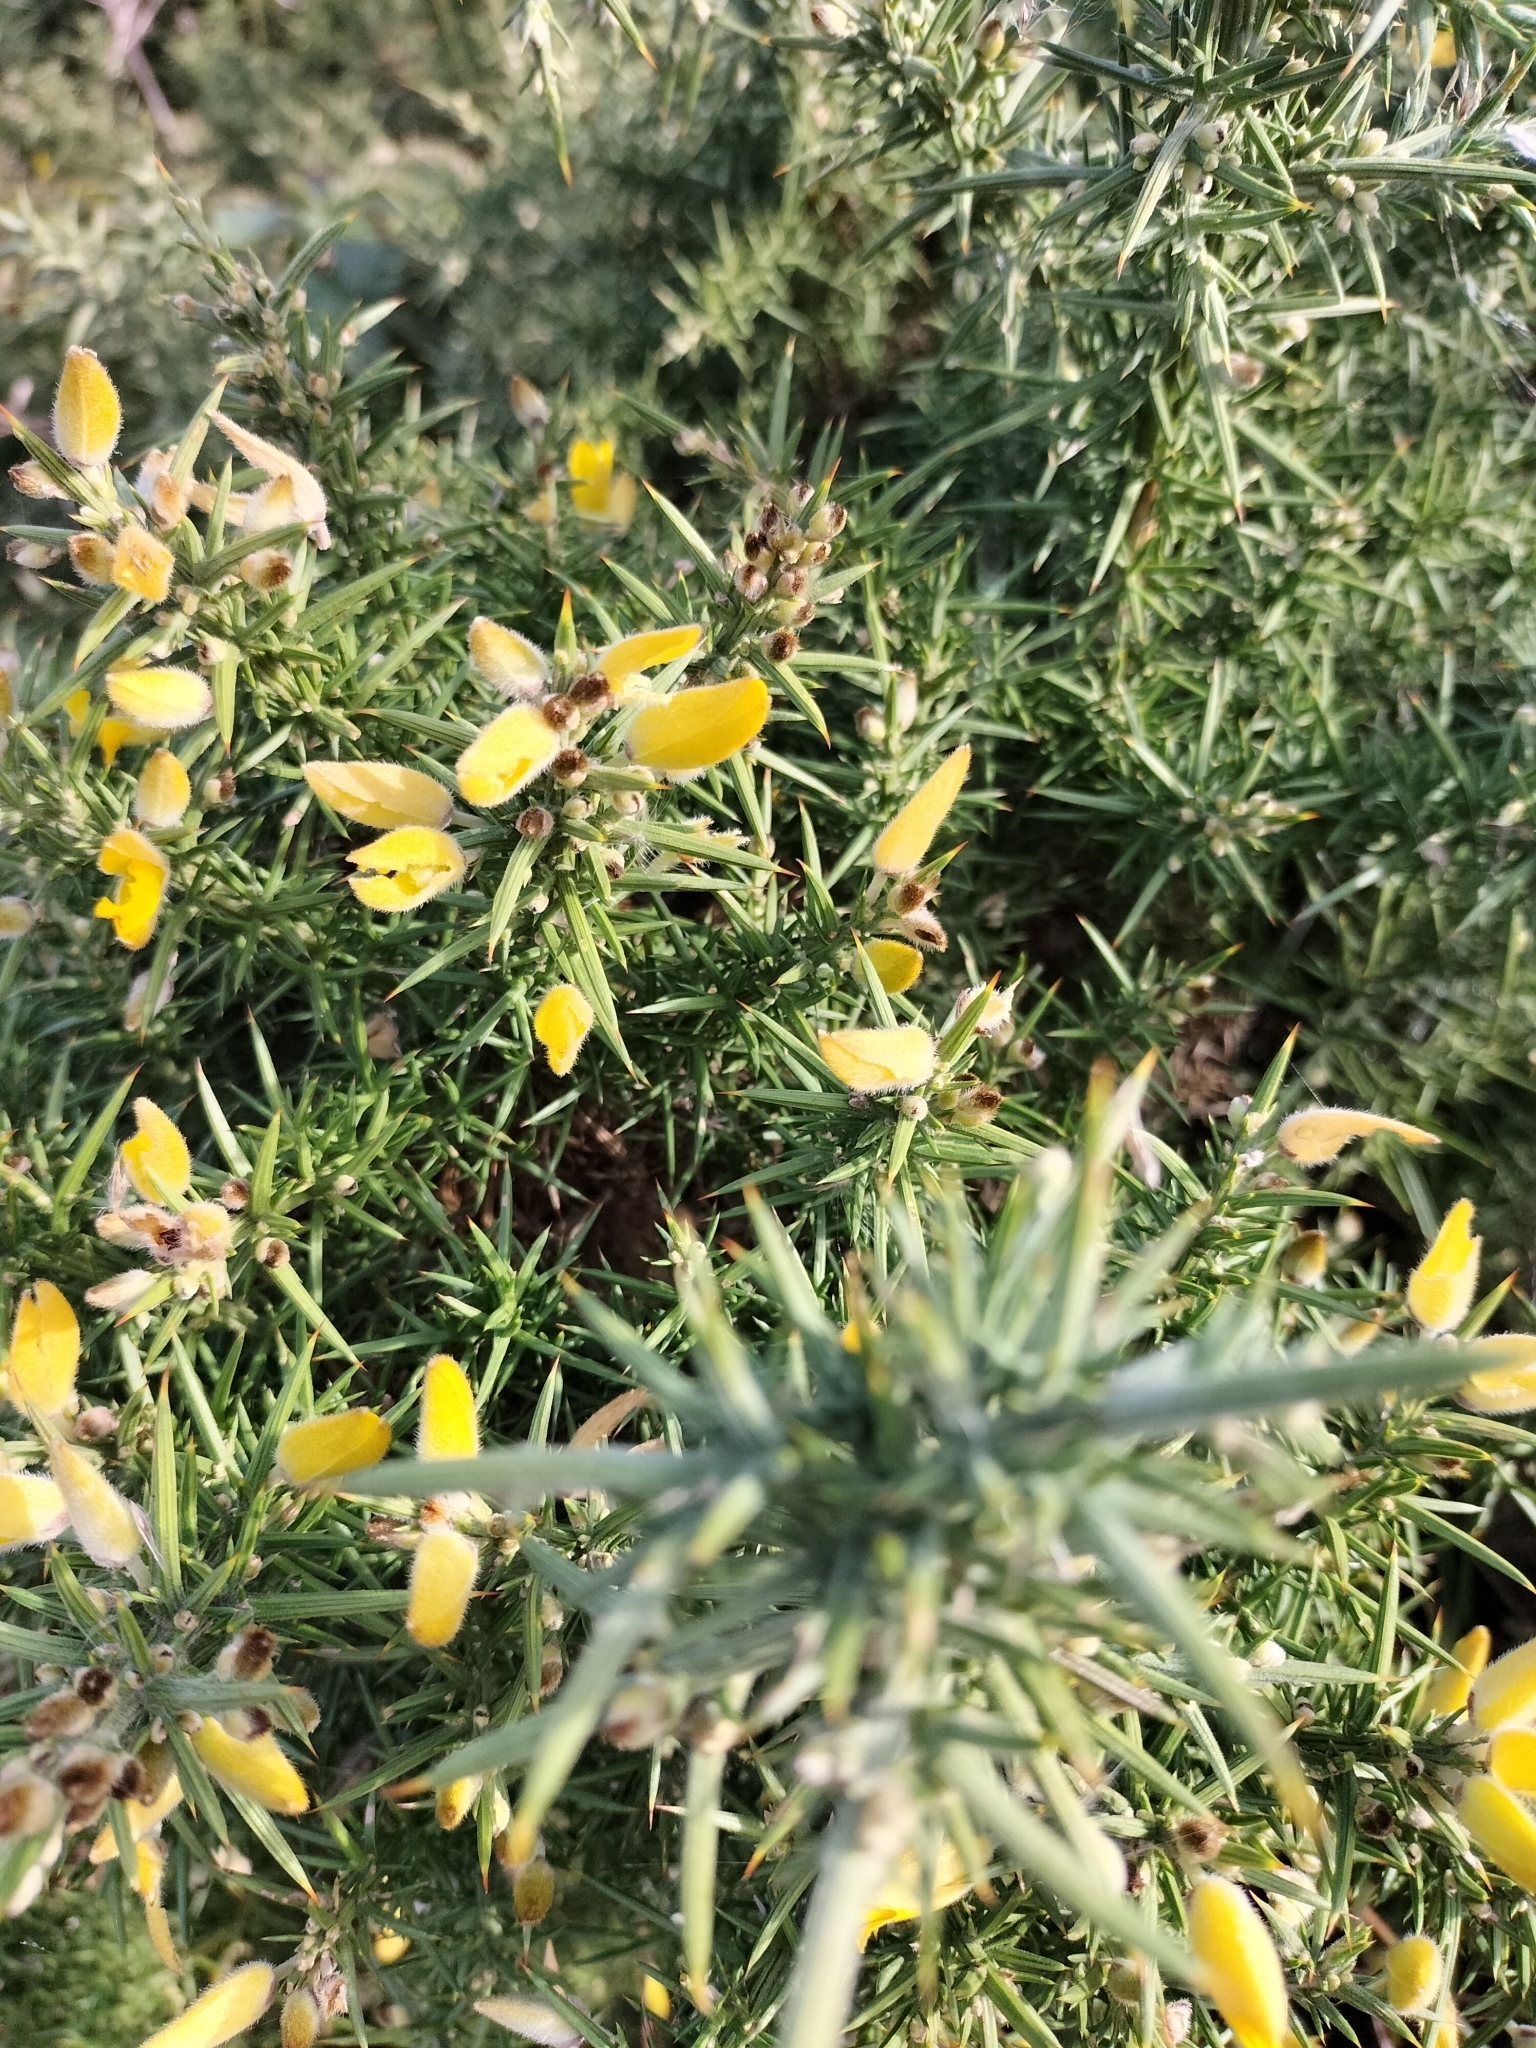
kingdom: Plantae
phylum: Tracheophyta
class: Magnoliopsida
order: Fabales
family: Fabaceae
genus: Ulex
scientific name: Ulex europaeus
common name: Common gorse
